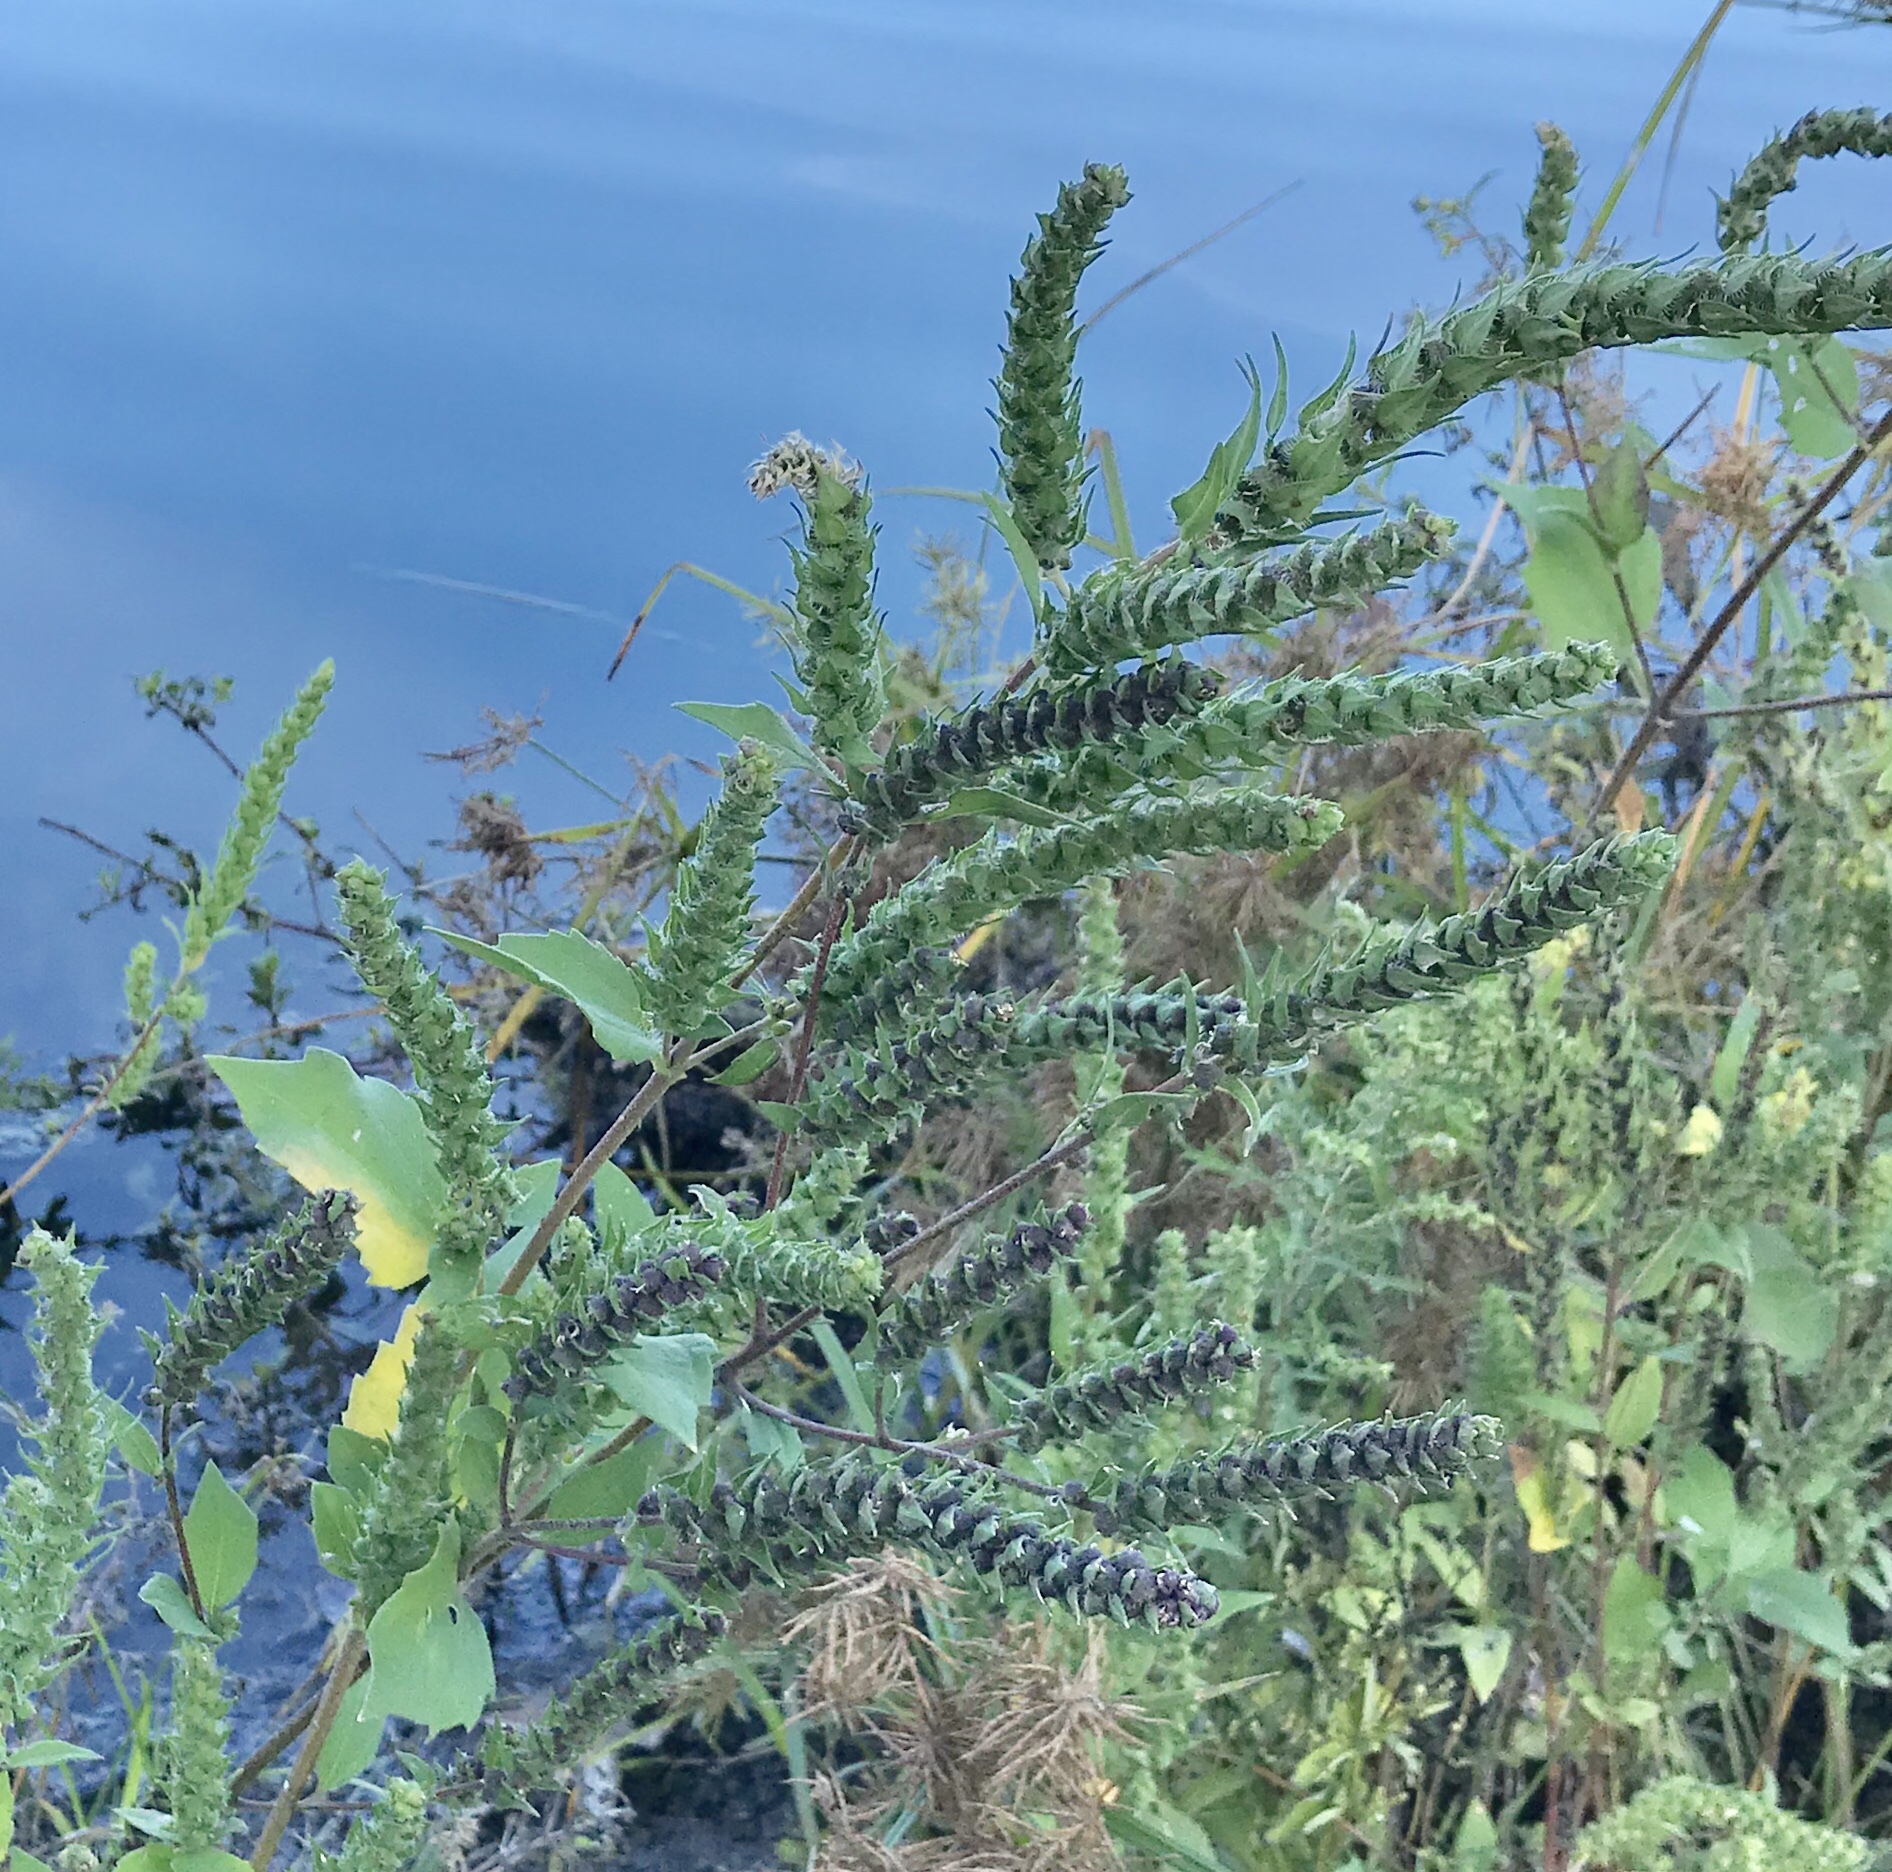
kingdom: Plantae
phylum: Tracheophyta
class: Magnoliopsida
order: Asterales
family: Asteraceae
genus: Iva
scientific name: Iva annua
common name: Marsh-elder
